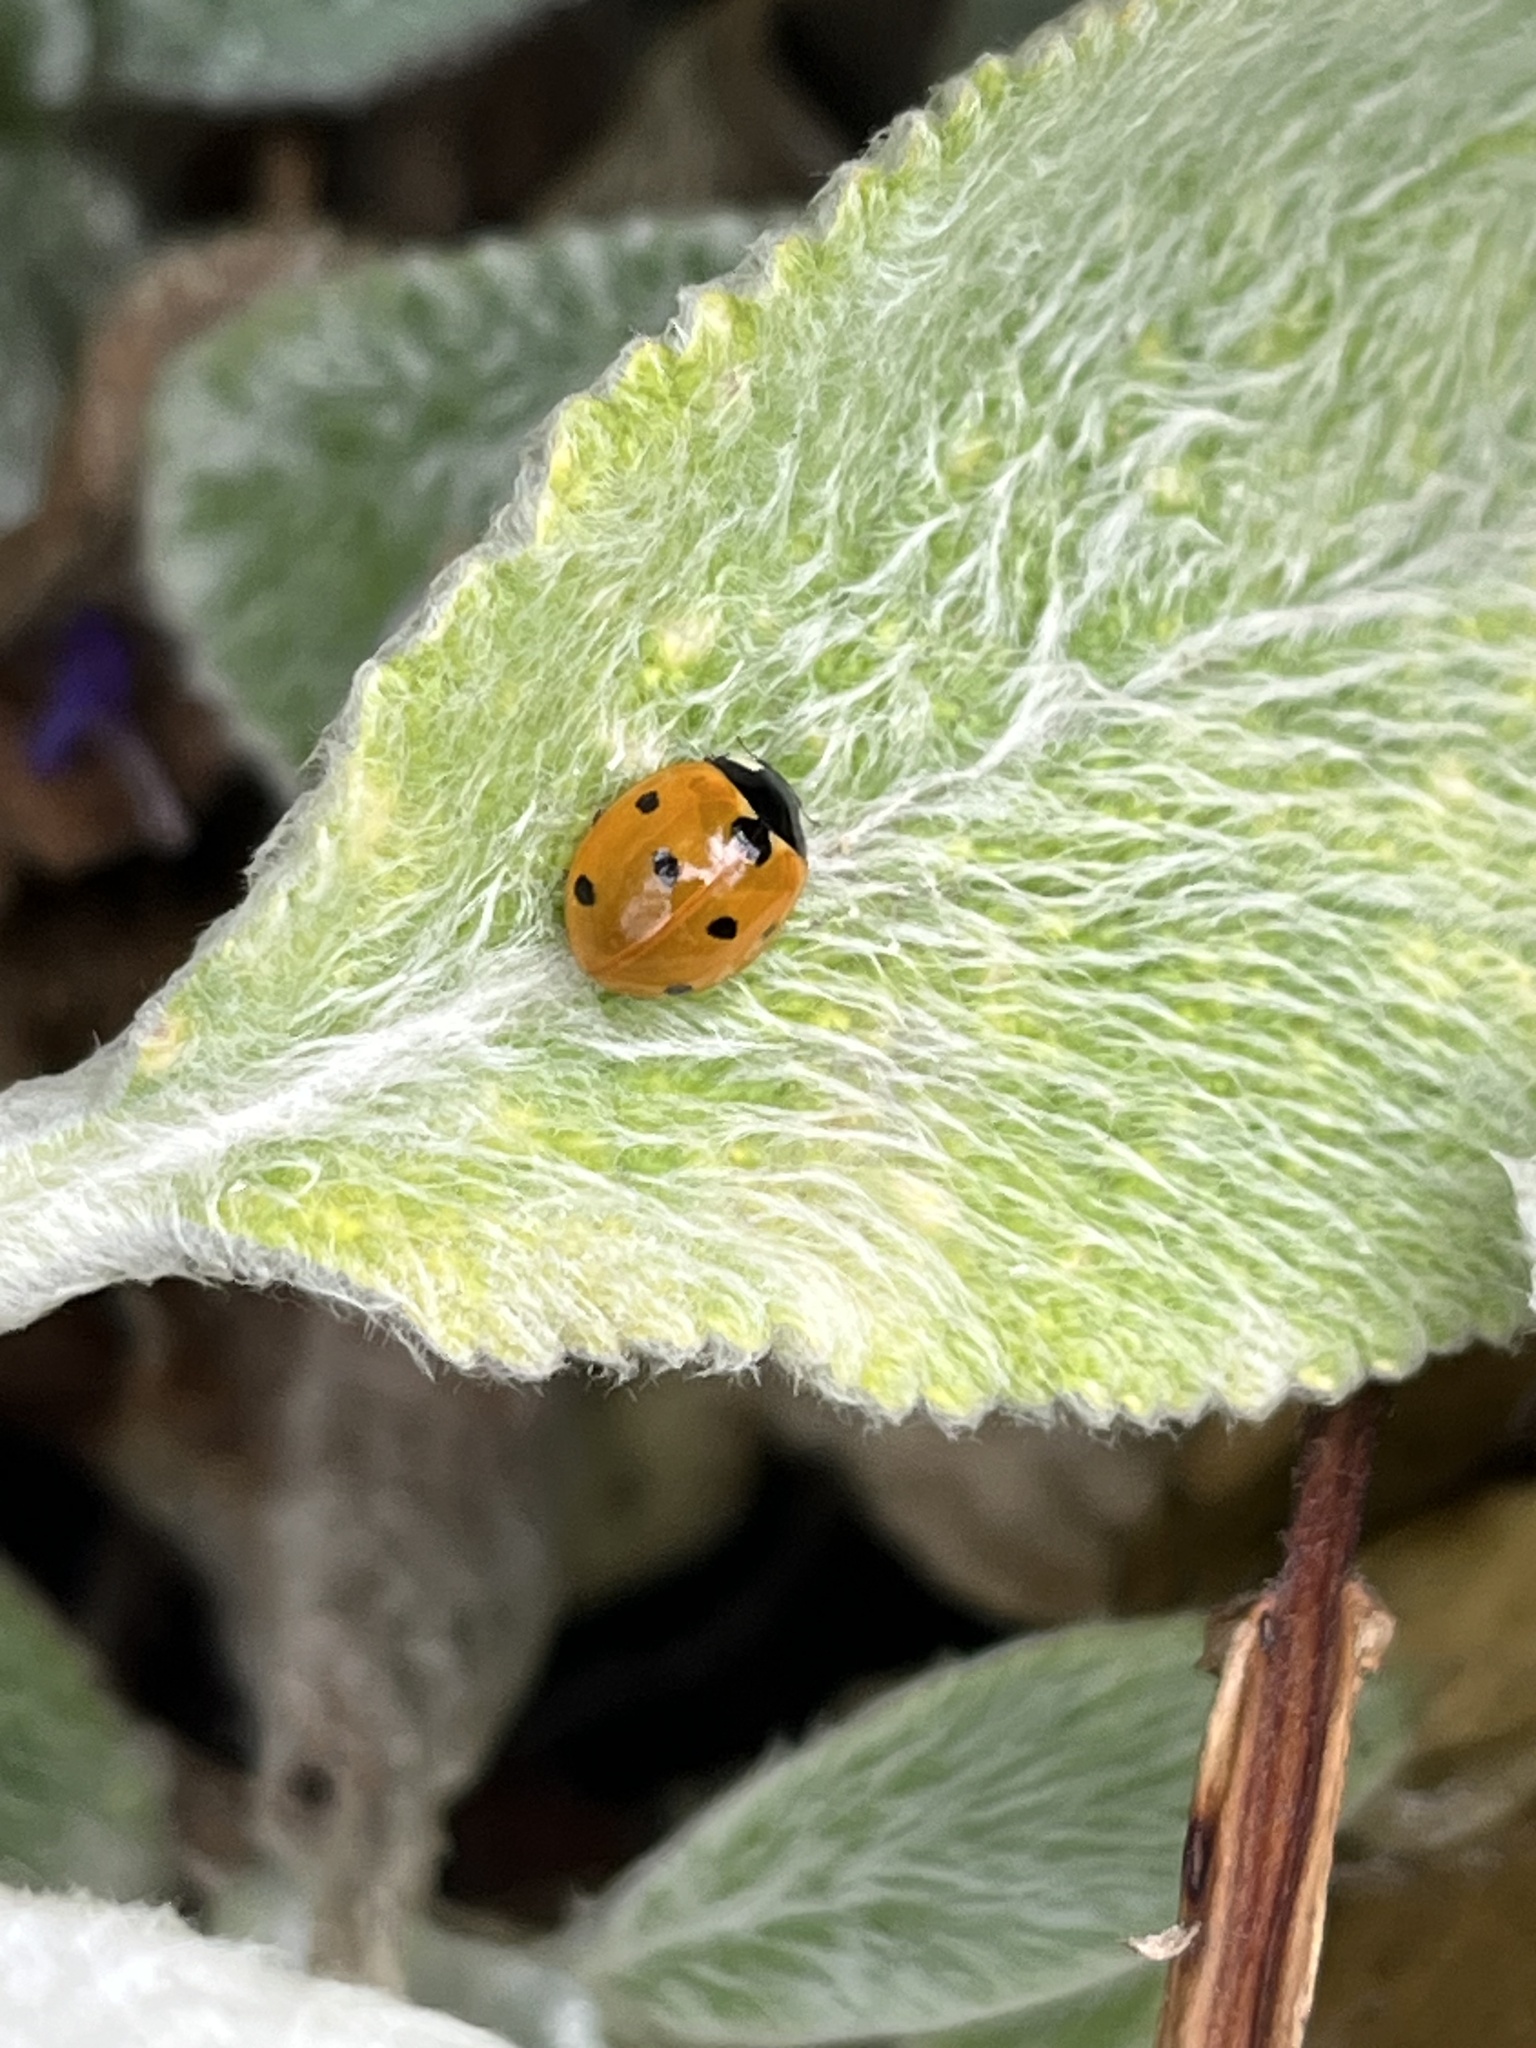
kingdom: Animalia
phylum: Arthropoda
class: Insecta
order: Coleoptera
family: Coccinellidae
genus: Coccinella
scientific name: Coccinella septempunctata
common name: Sevenspotted lady beetle
